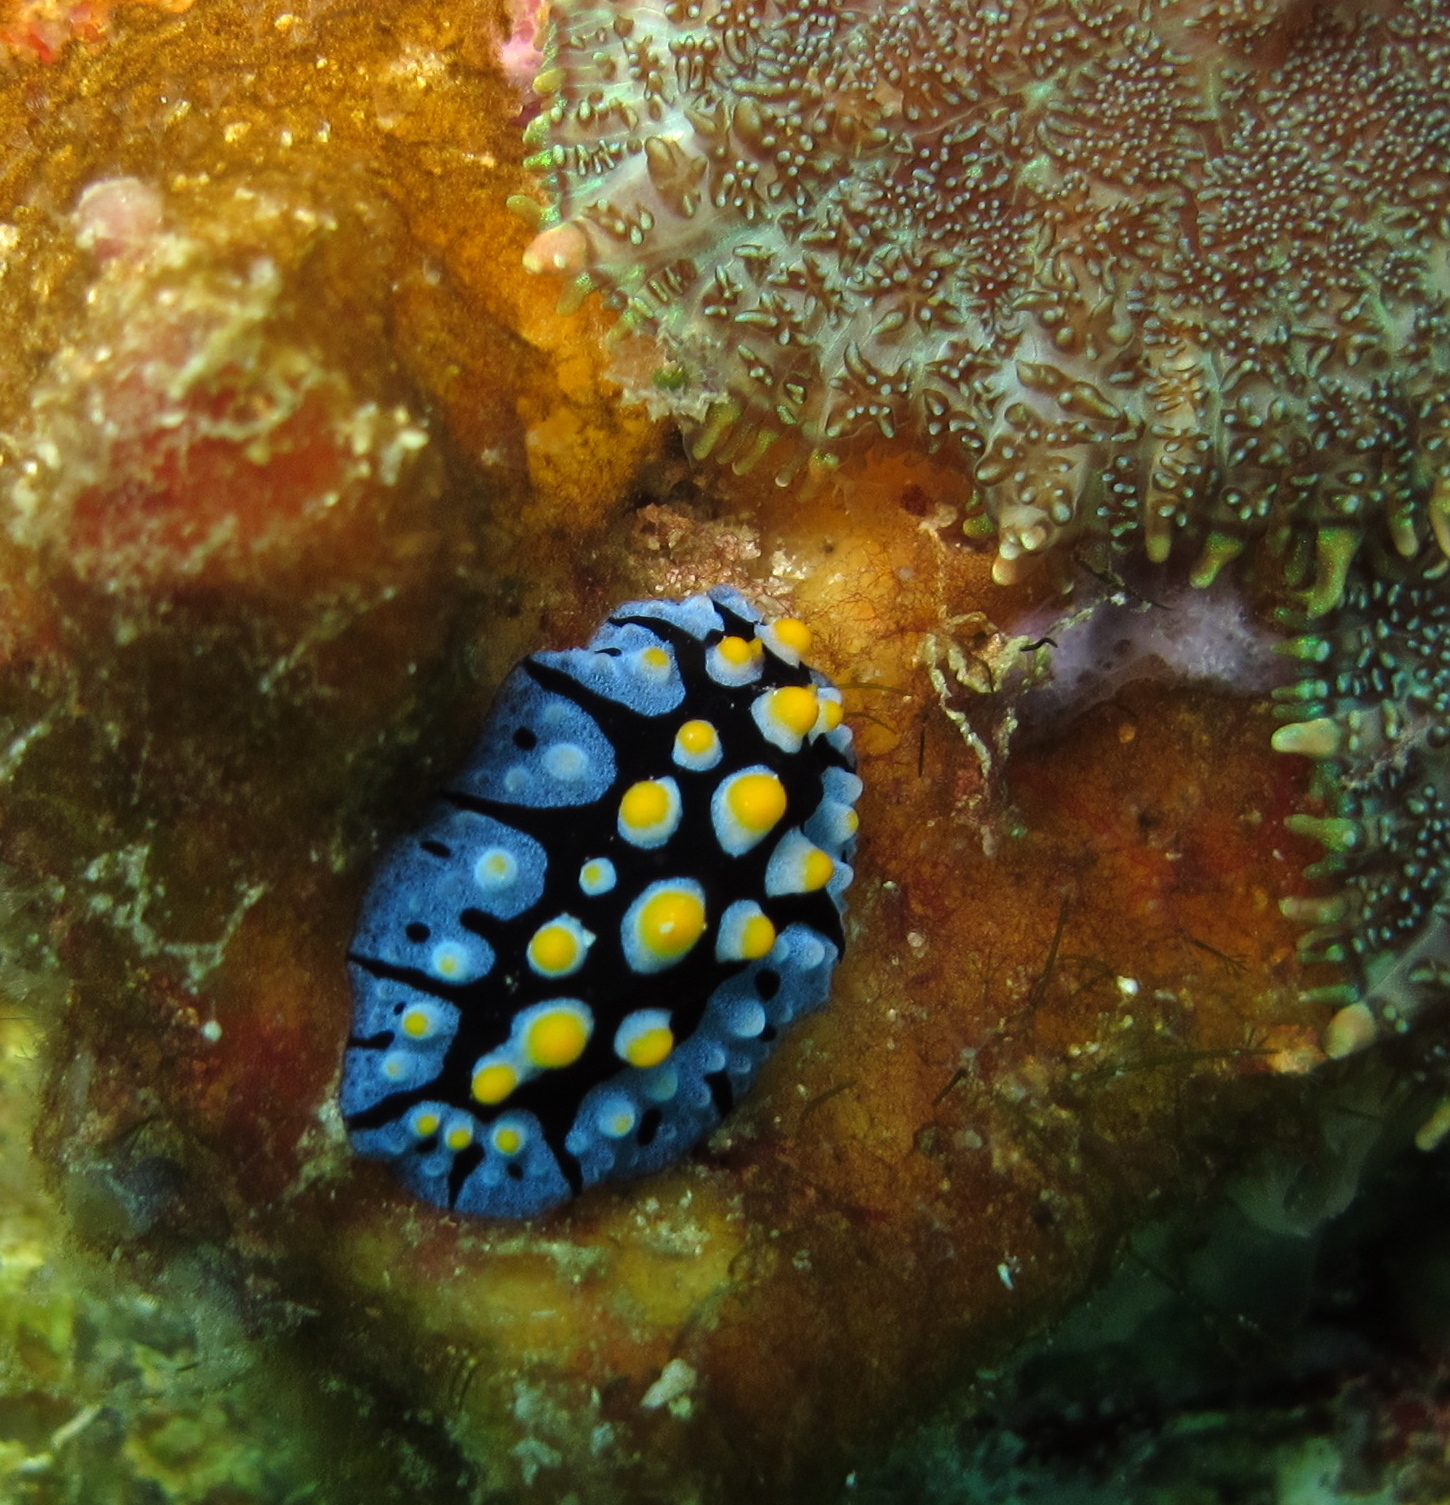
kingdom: Animalia
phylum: Mollusca
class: Gastropoda
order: Nudibranchia
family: Phyllidiidae
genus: Phyllidia
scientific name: Phyllidia picta
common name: Black-rayed phyllidia
